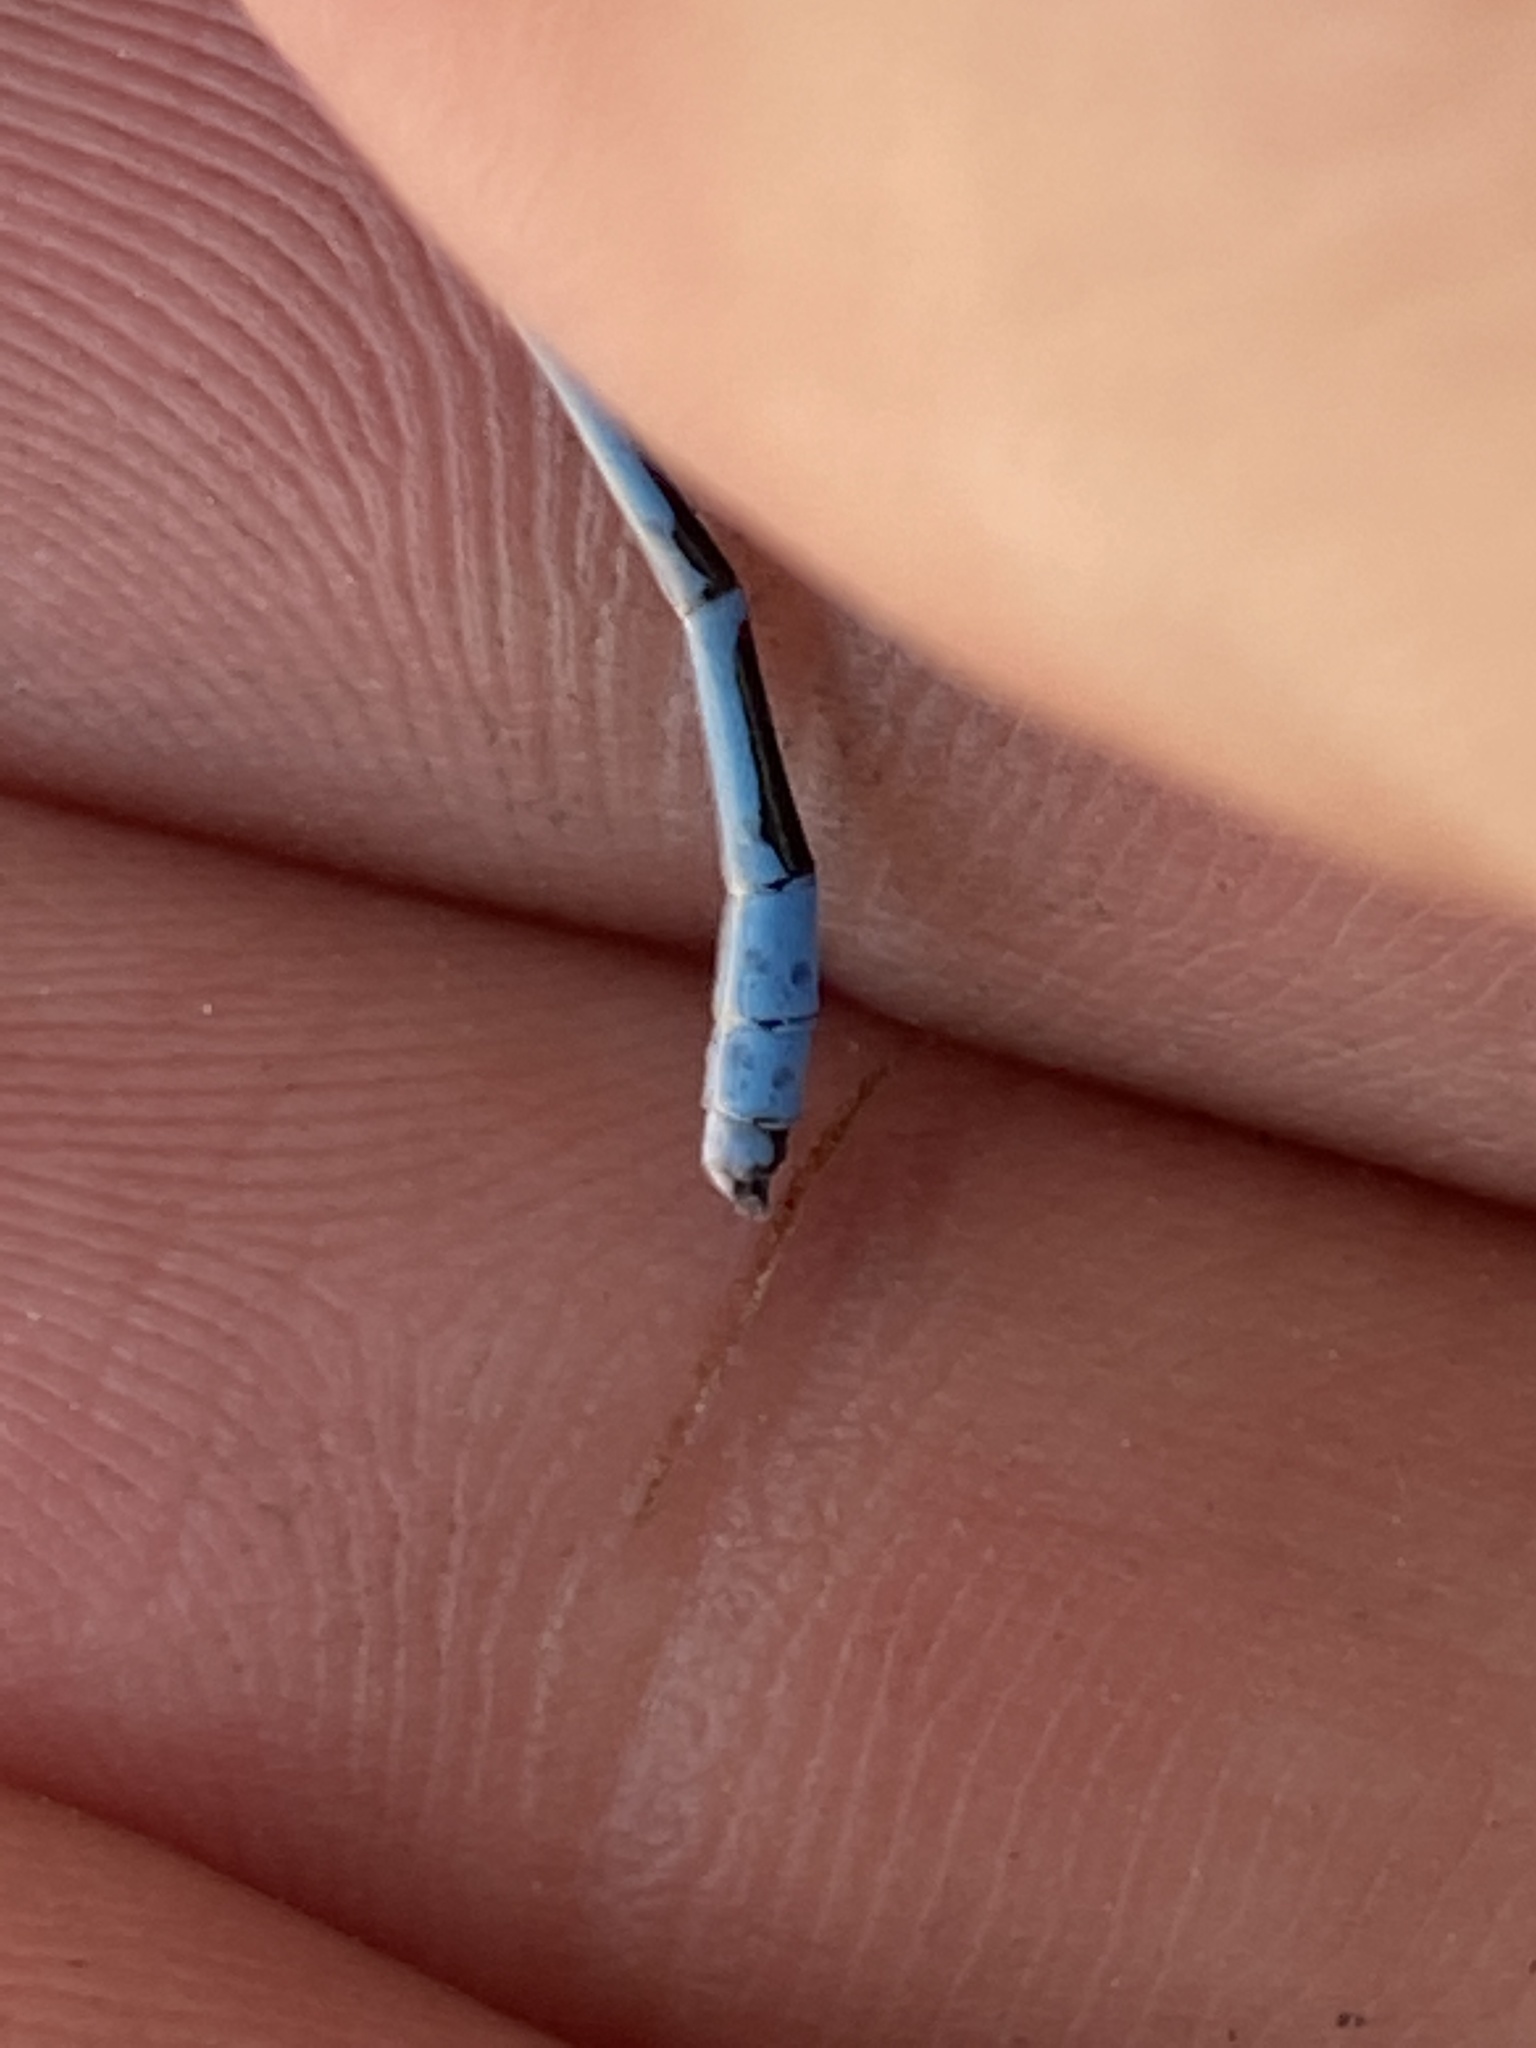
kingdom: Animalia
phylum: Arthropoda
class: Insecta
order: Odonata
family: Coenagrionidae
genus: Enallagma
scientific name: Enallagma civile
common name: Damselfly
